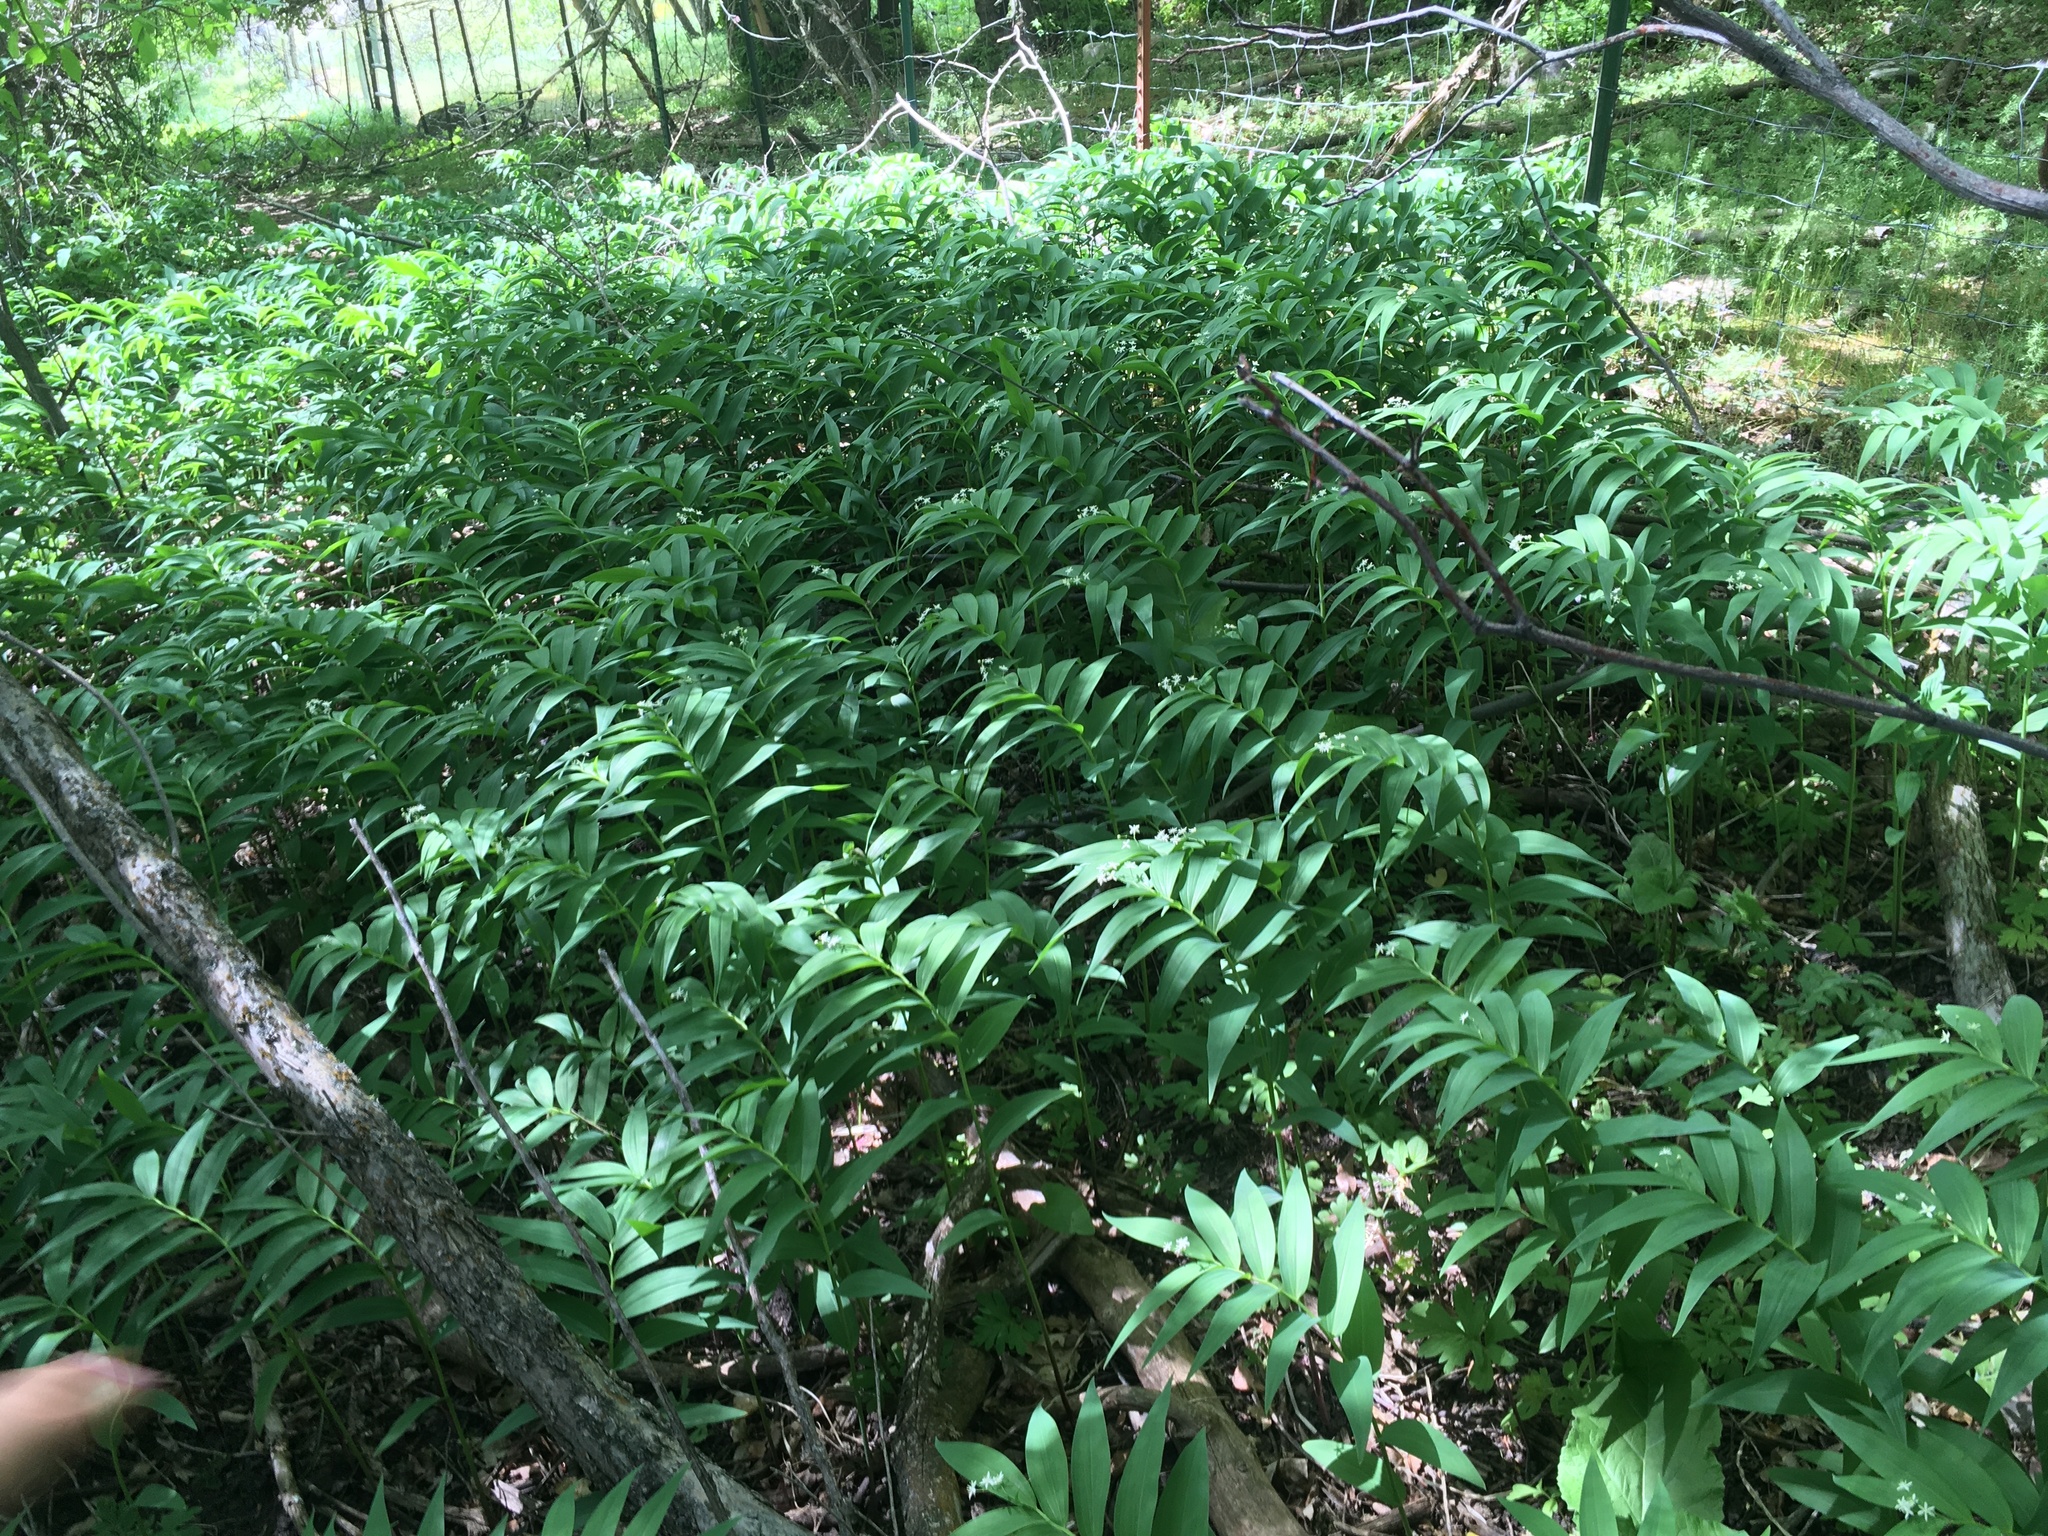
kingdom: Plantae
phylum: Tracheophyta
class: Liliopsida
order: Asparagales
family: Asparagaceae
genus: Maianthemum
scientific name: Maianthemum stellatum
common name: Little false solomon's seal
